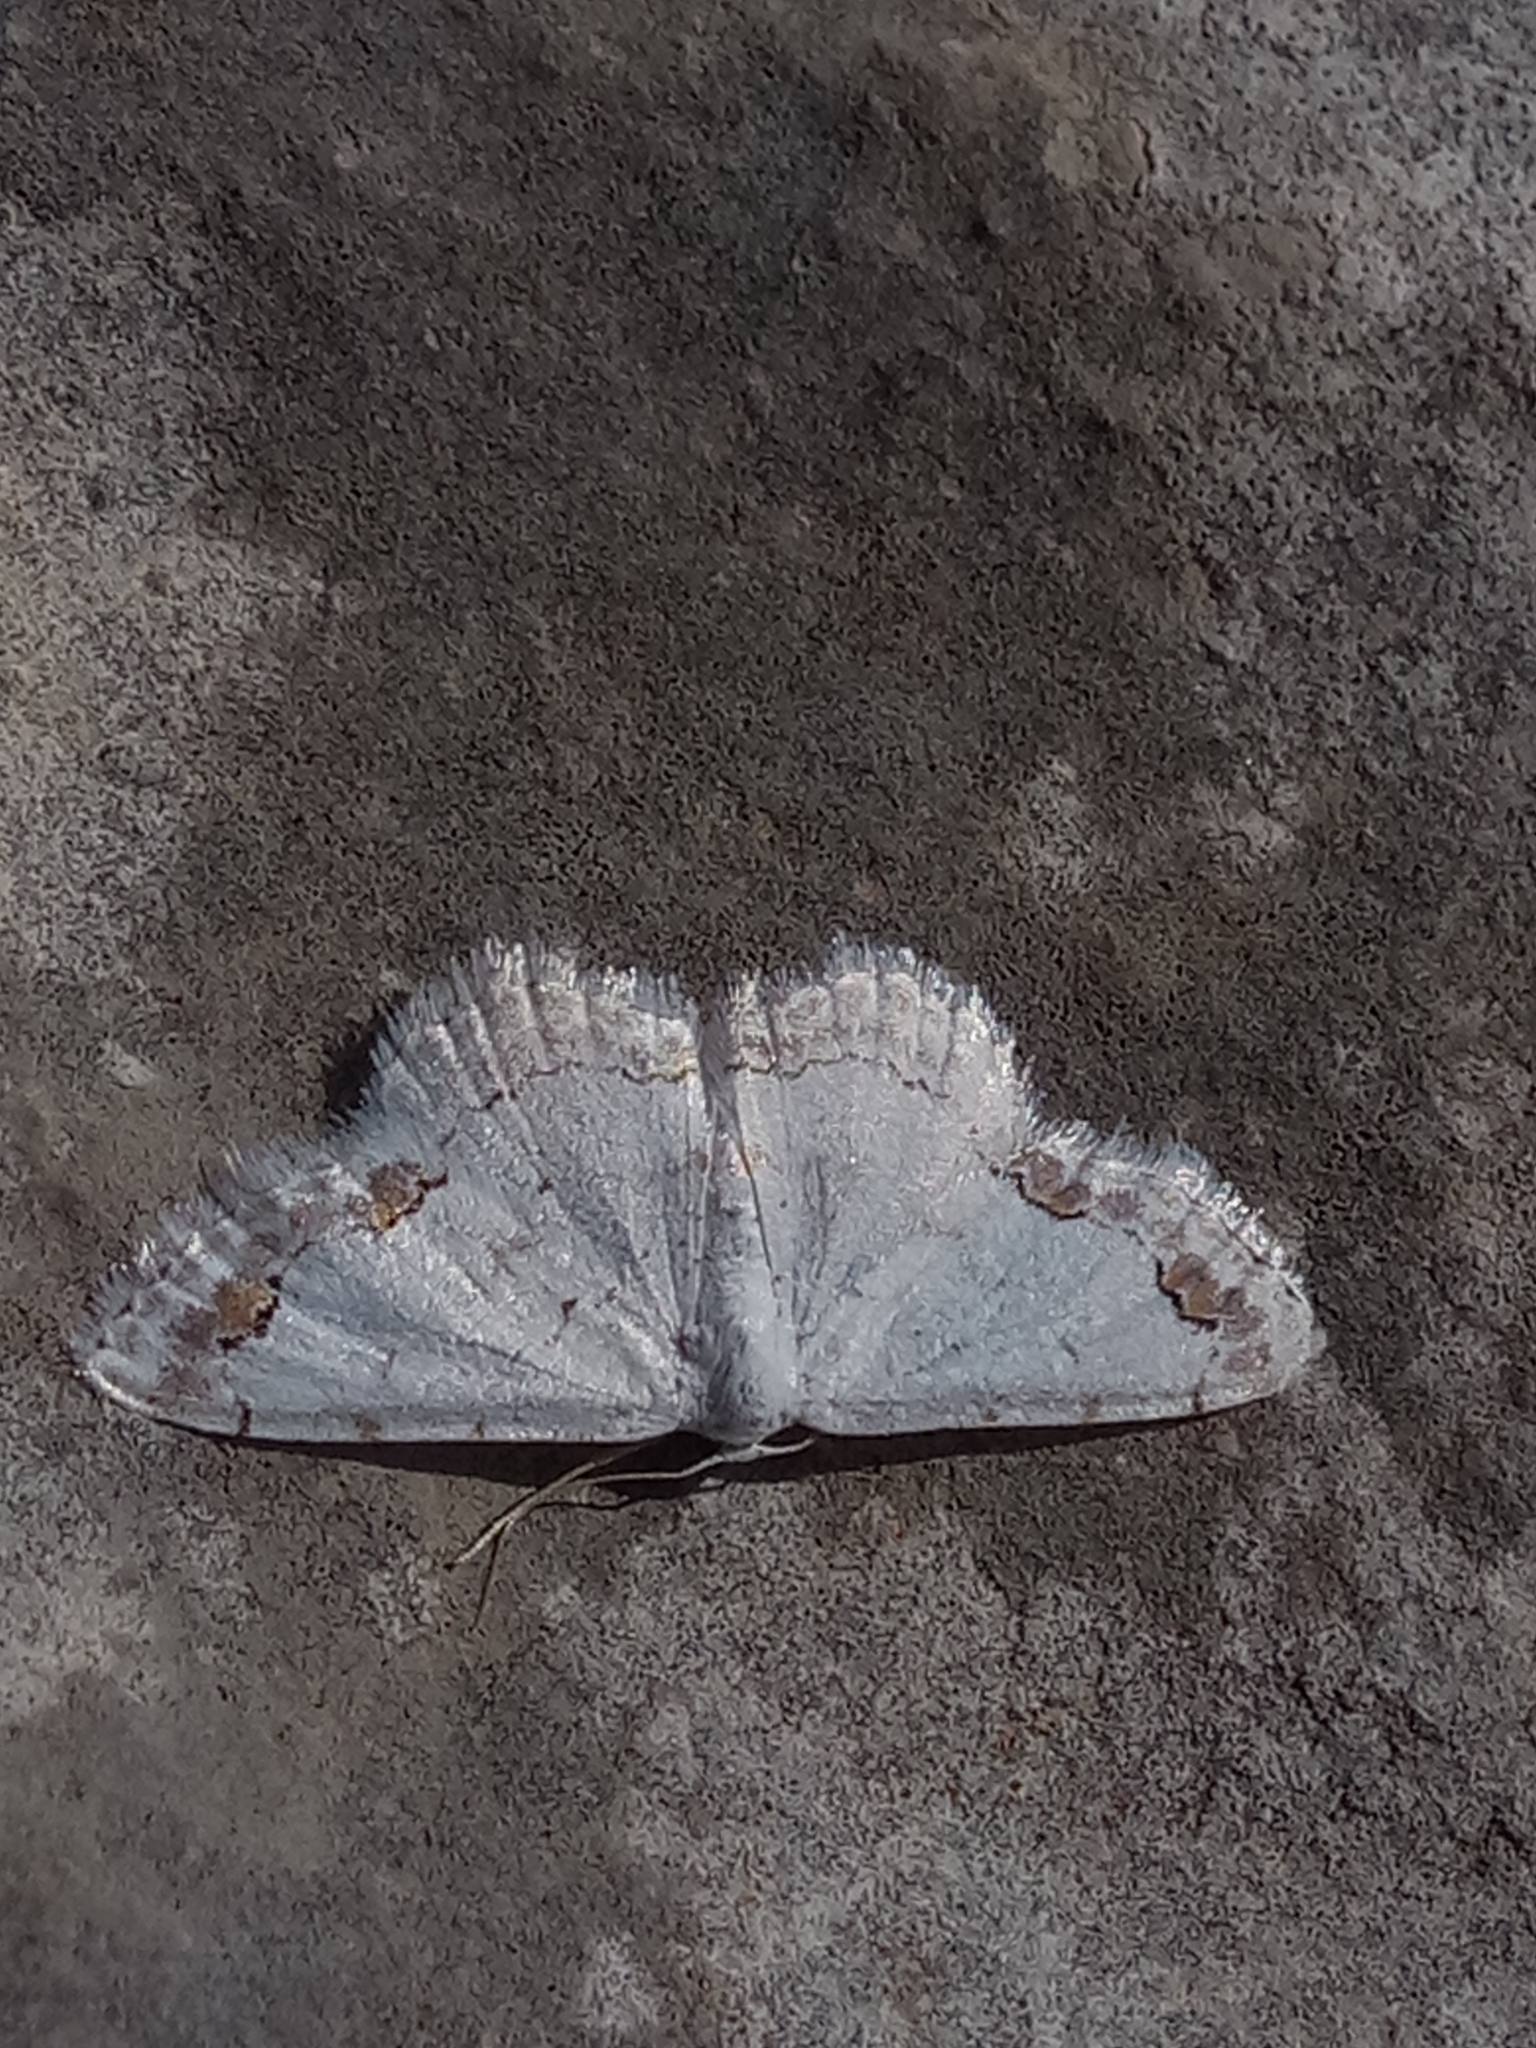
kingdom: Animalia
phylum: Arthropoda
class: Insecta
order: Lepidoptera
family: Geometridae
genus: Scopula
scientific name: Scopula ornata
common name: Lace border
